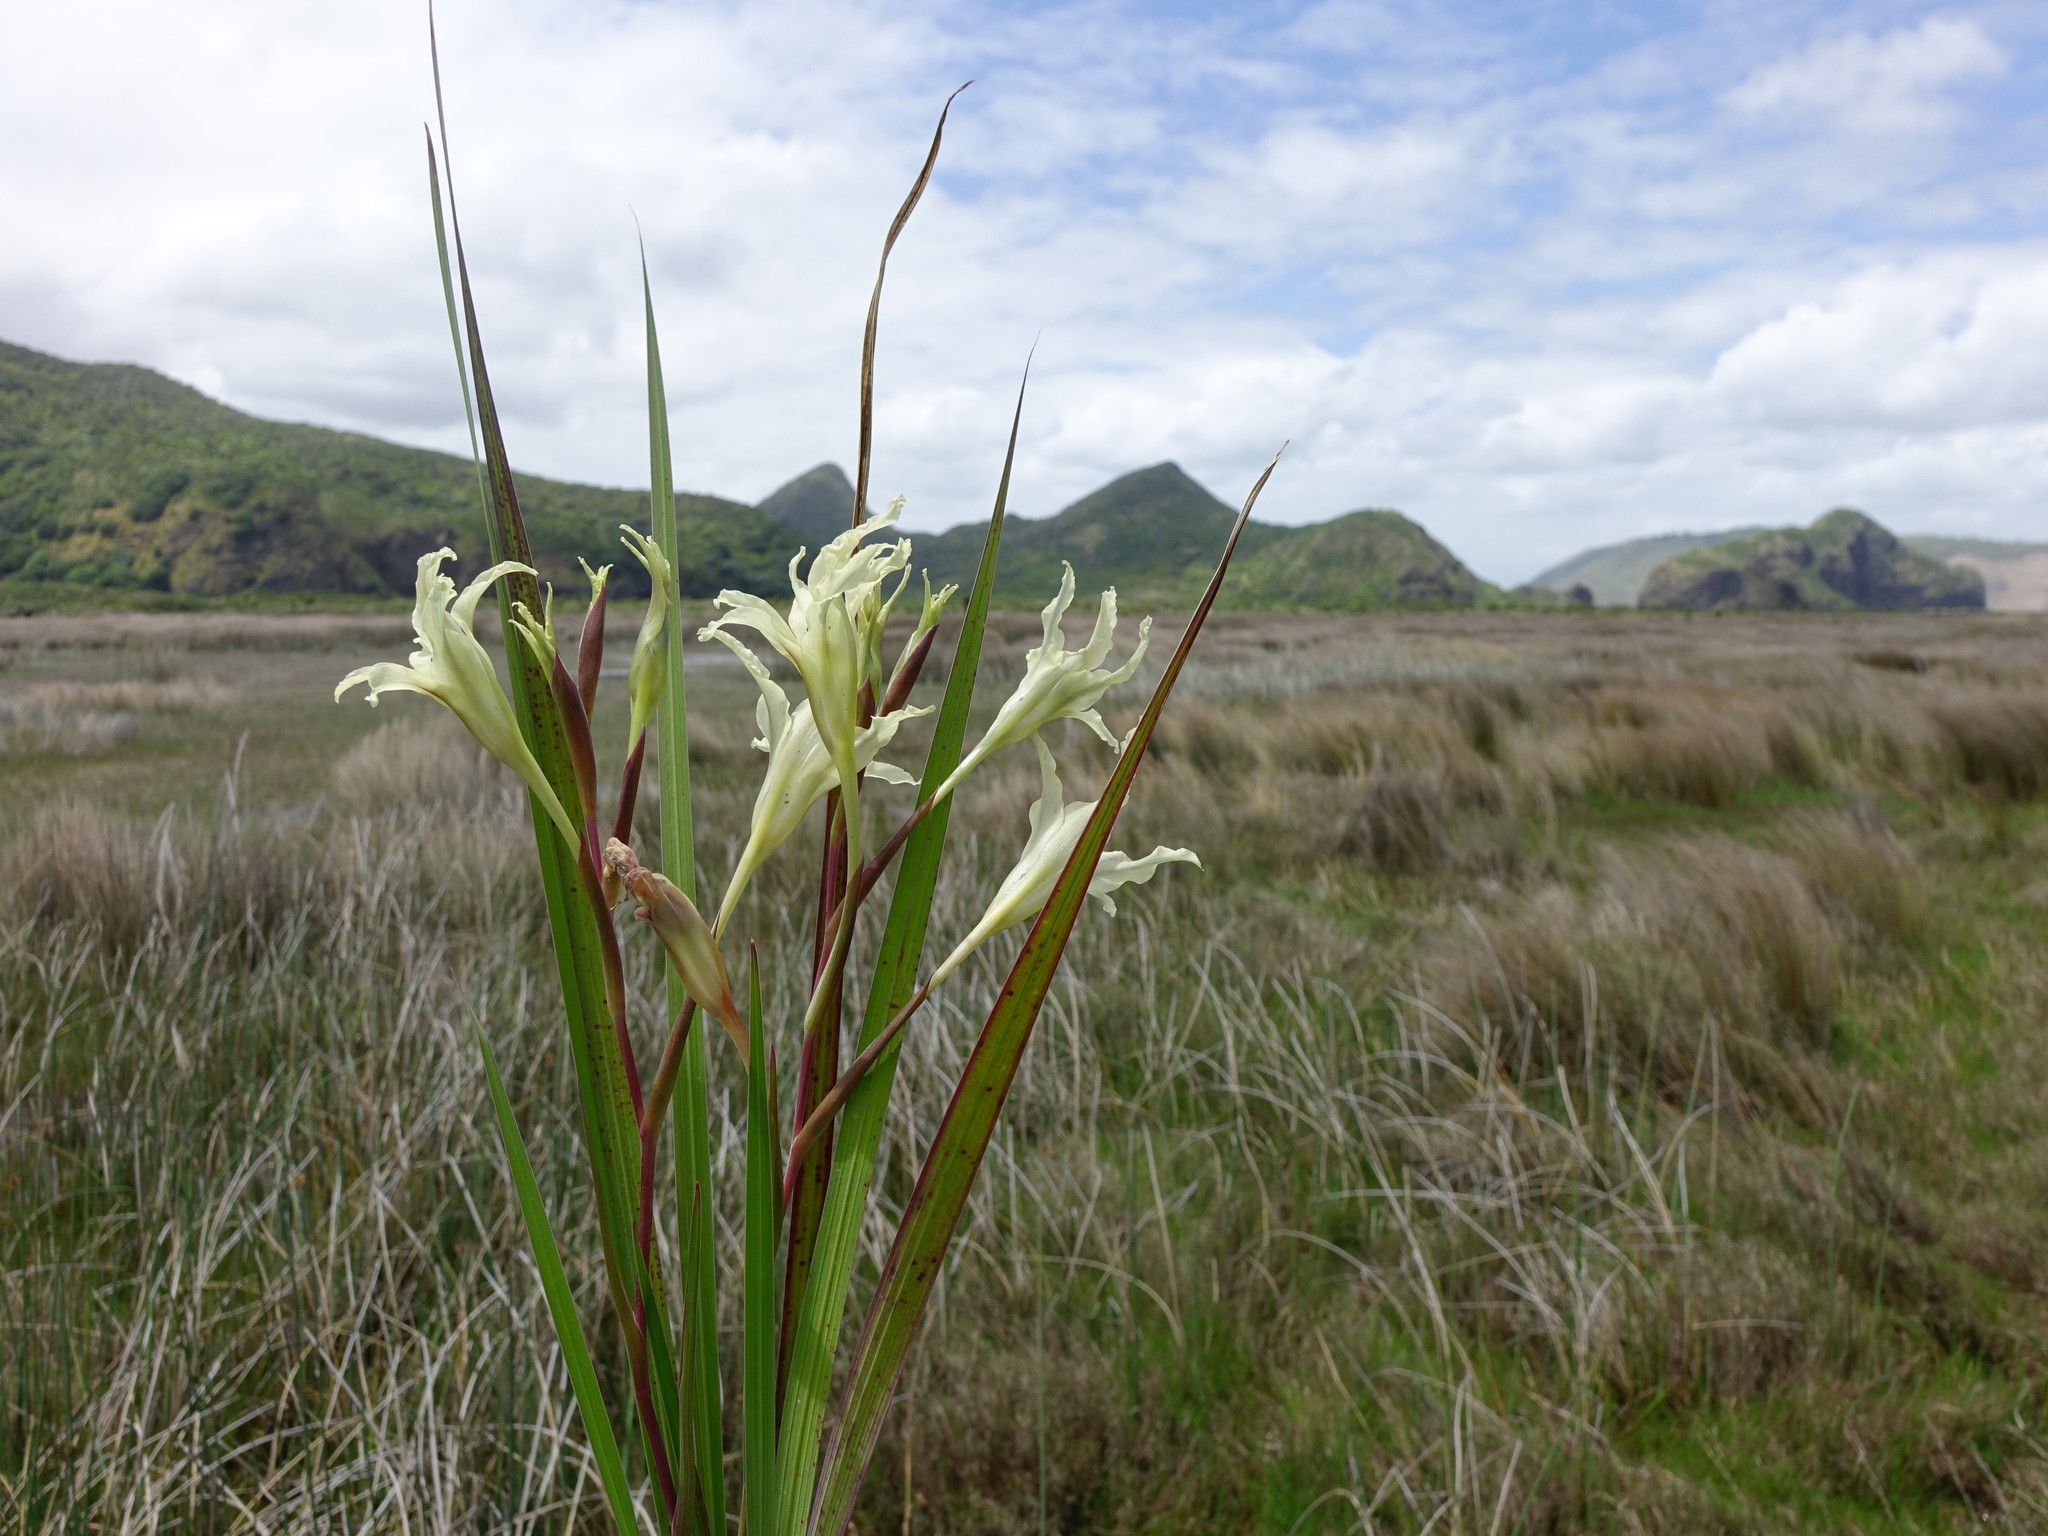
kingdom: Plantae
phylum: Tracheophyta
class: Liliopsida
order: Asparagales
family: Iridaceae
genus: Gladiolus
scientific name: Gladiolus undulatus
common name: Large painted-lady
